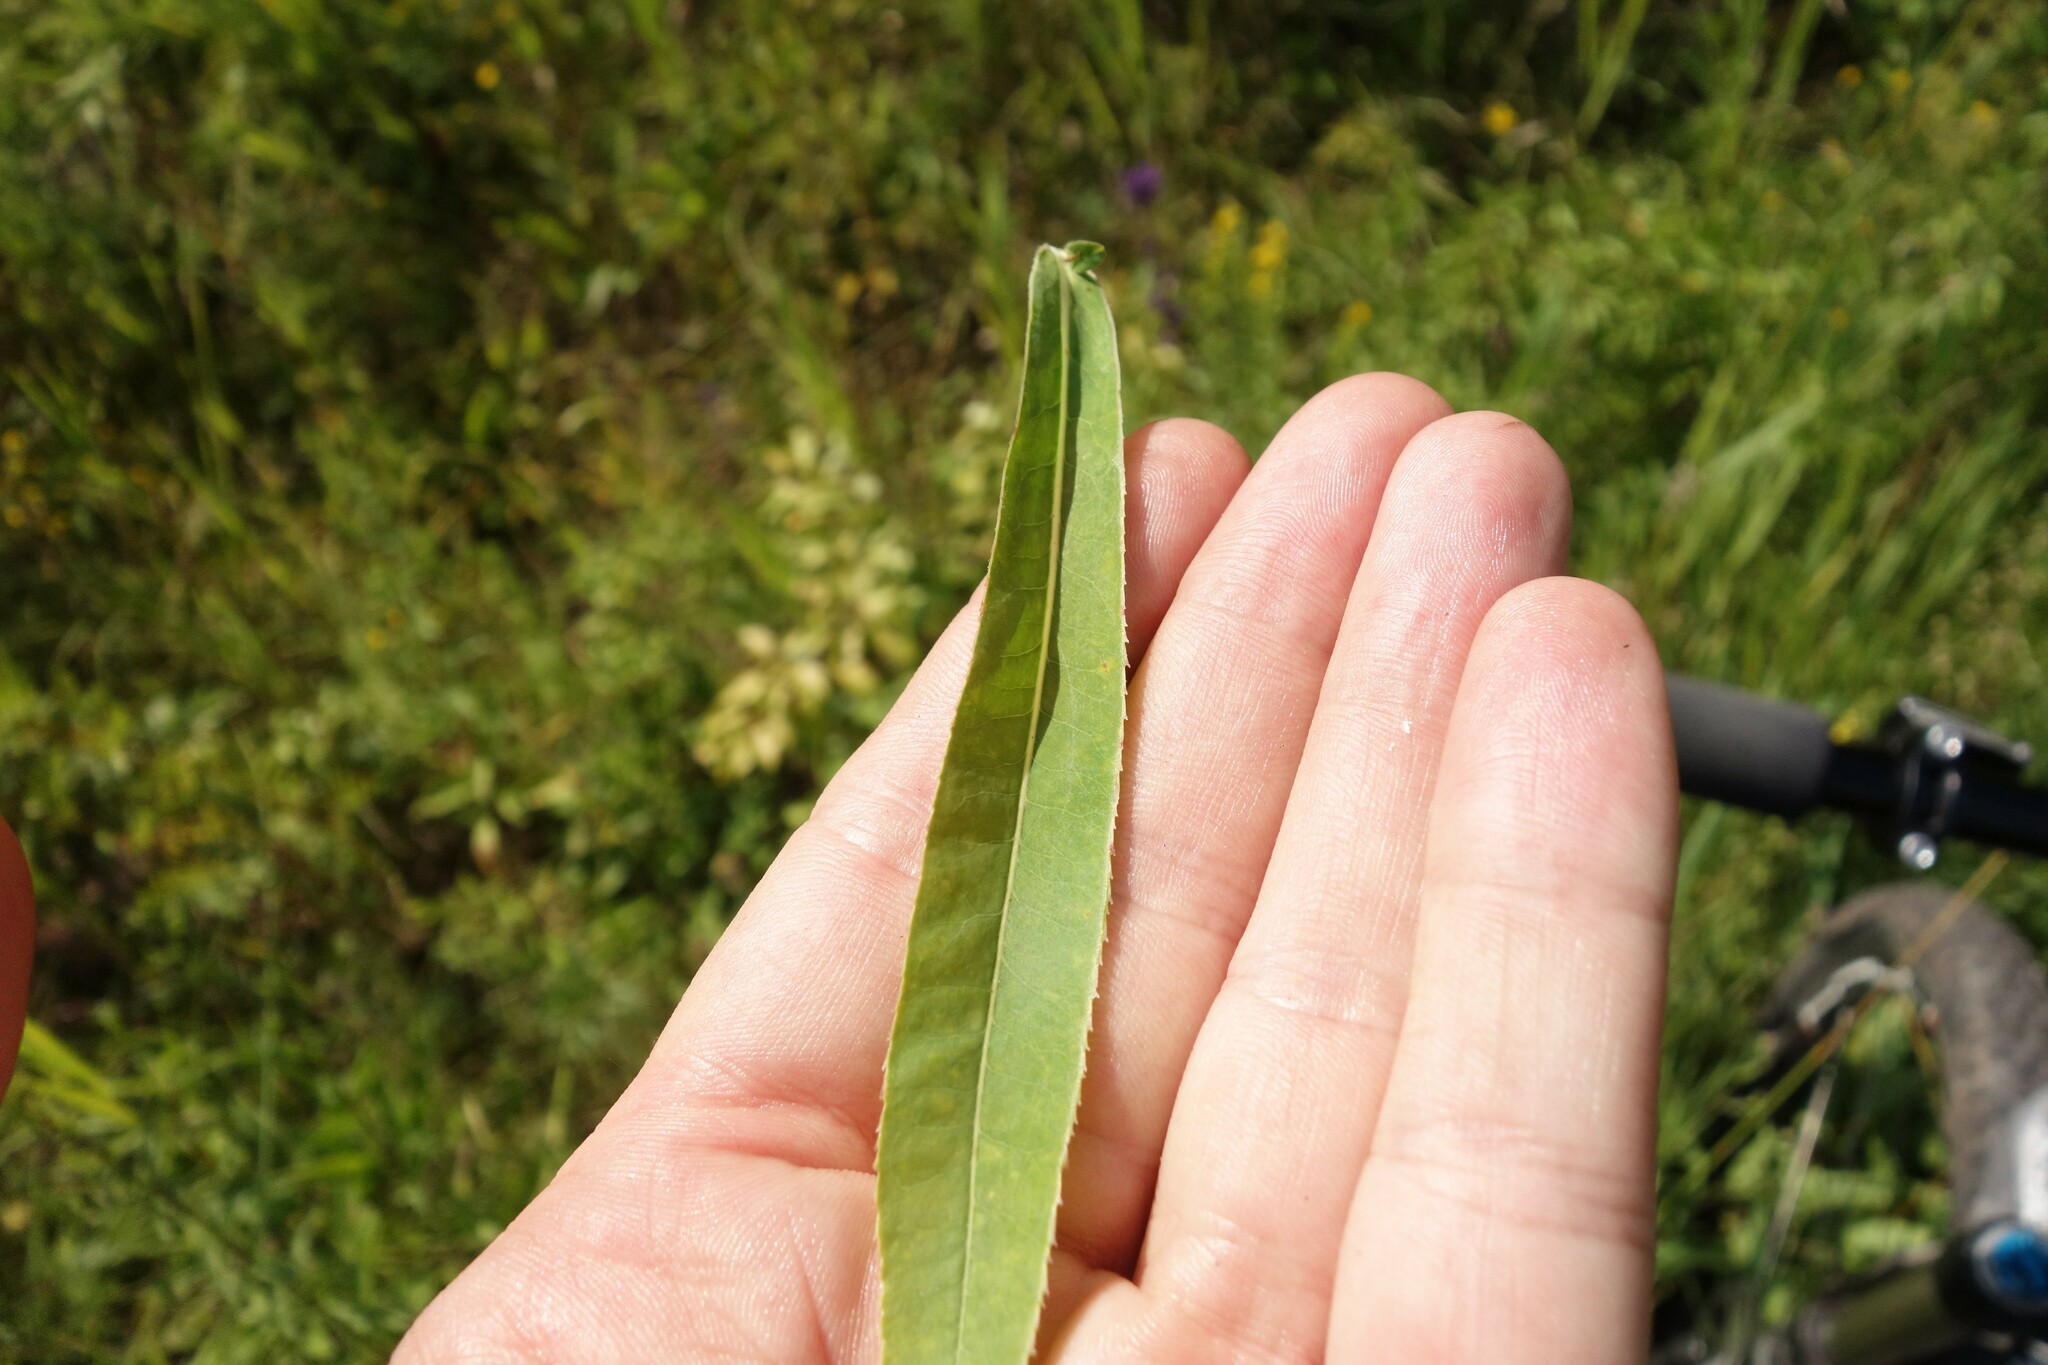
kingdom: Plantae
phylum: Tracheophyta
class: Magnoliopsida
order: Malpighiales
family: Euphorbiaceae
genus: Euphorbia
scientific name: Euphorbia semivillosa
